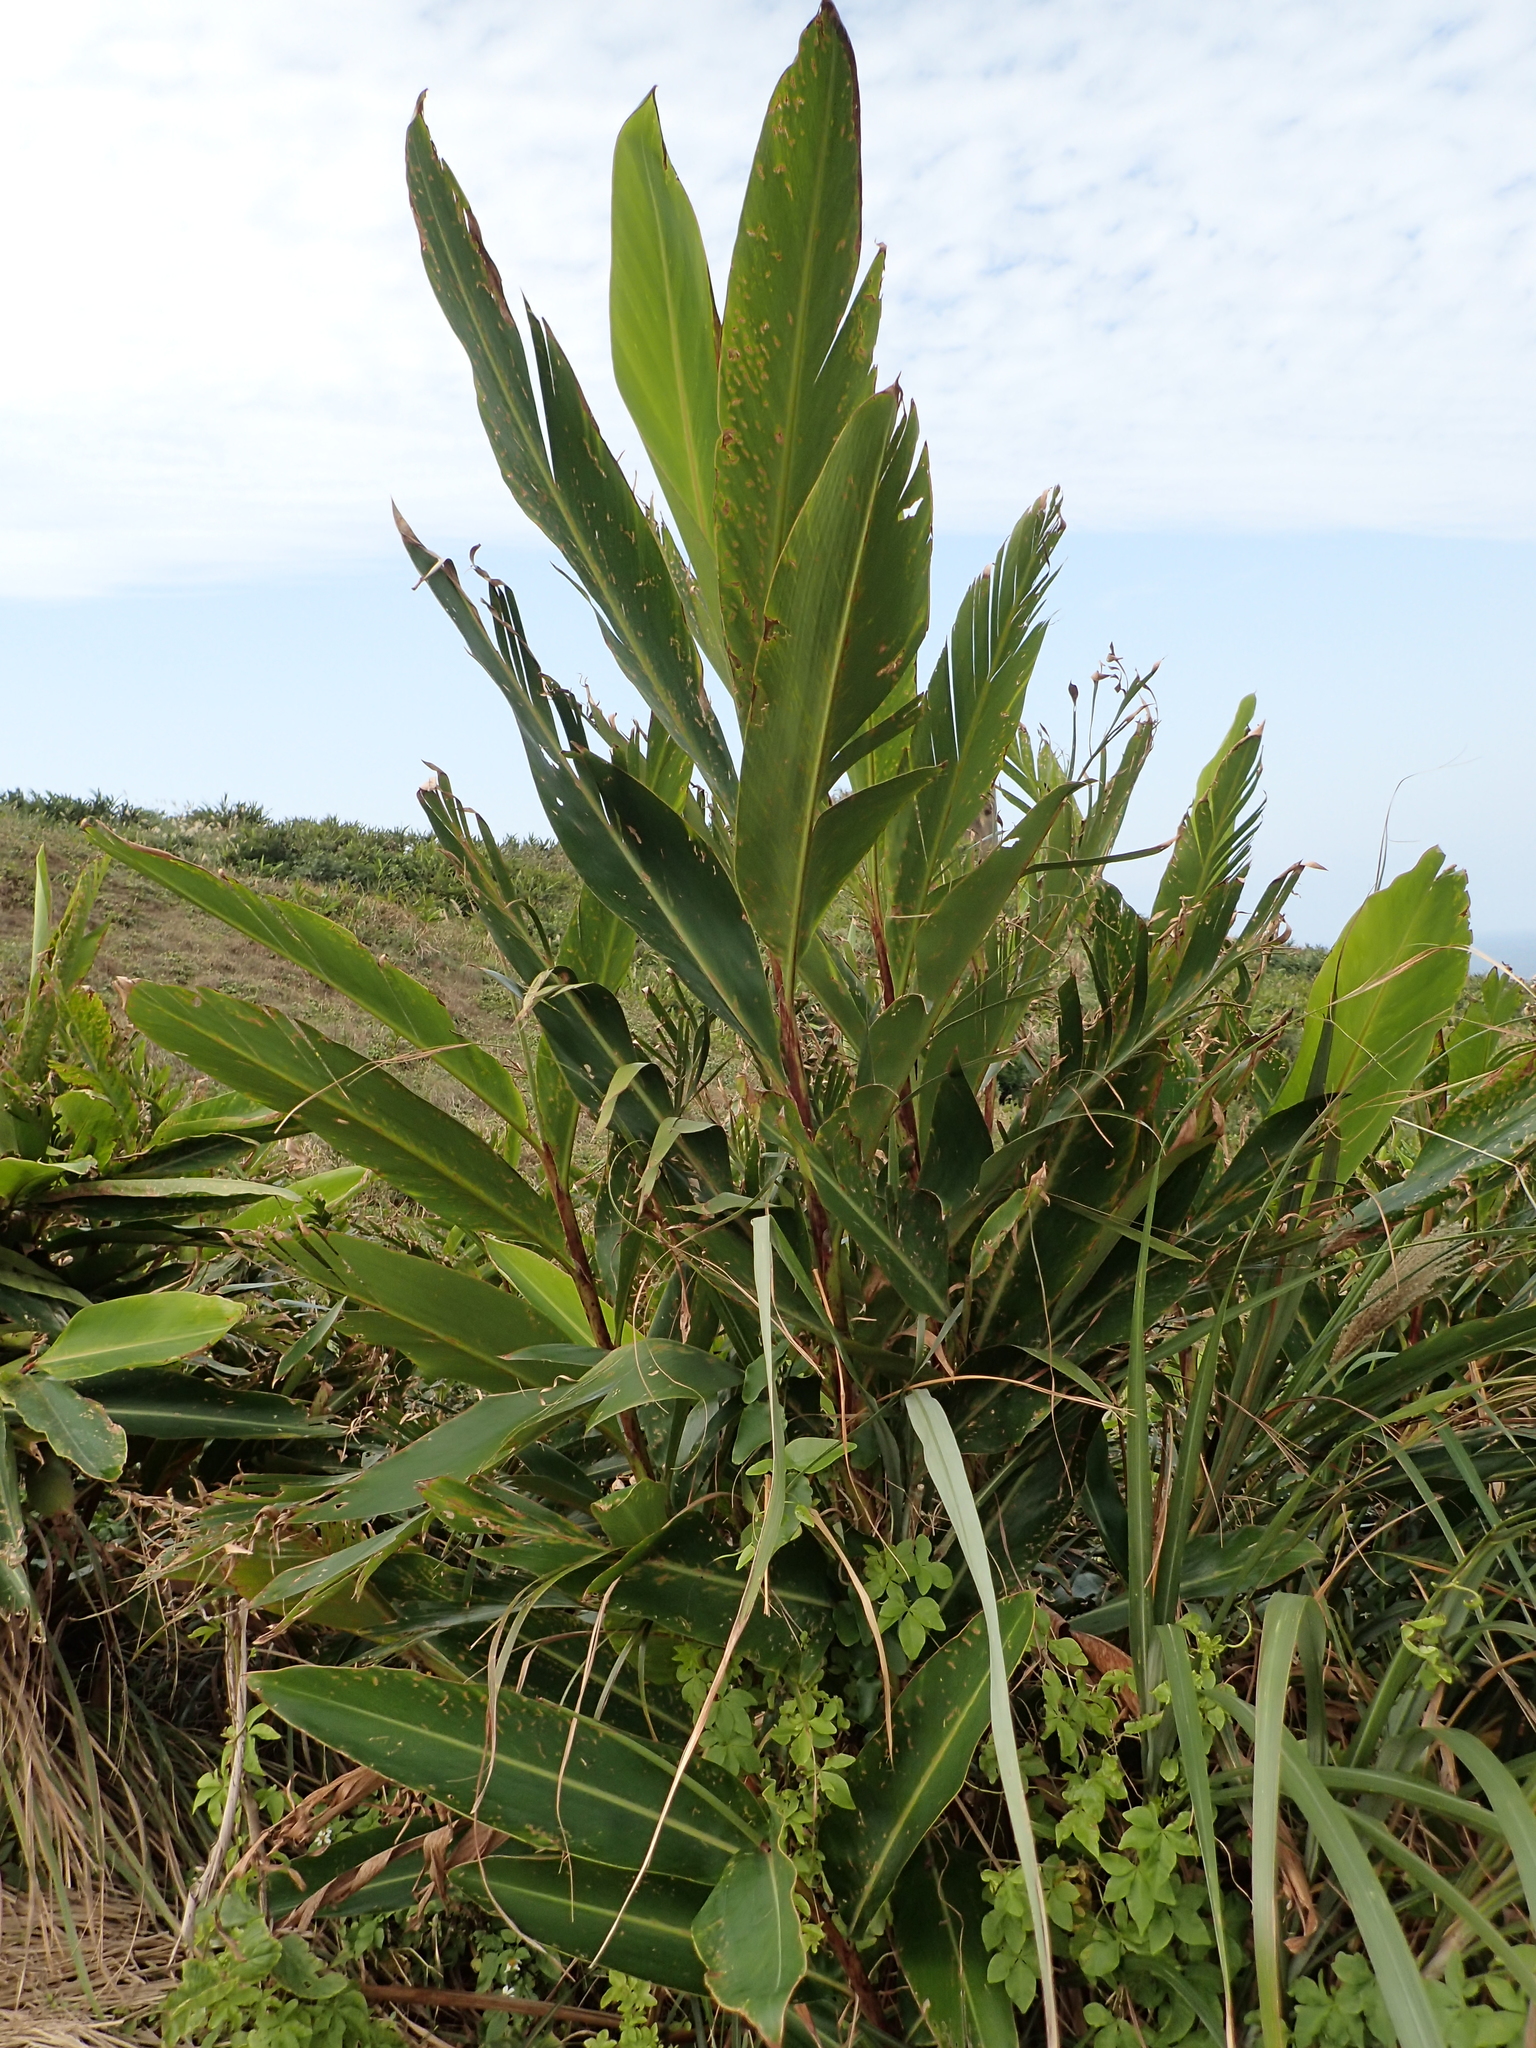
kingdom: Plantae
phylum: Tracheophyta
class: Liliopsida
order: Zingiberales
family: Zingiberaceae
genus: Alpinia
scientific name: Alpinia zerumbet
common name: Shellplant
